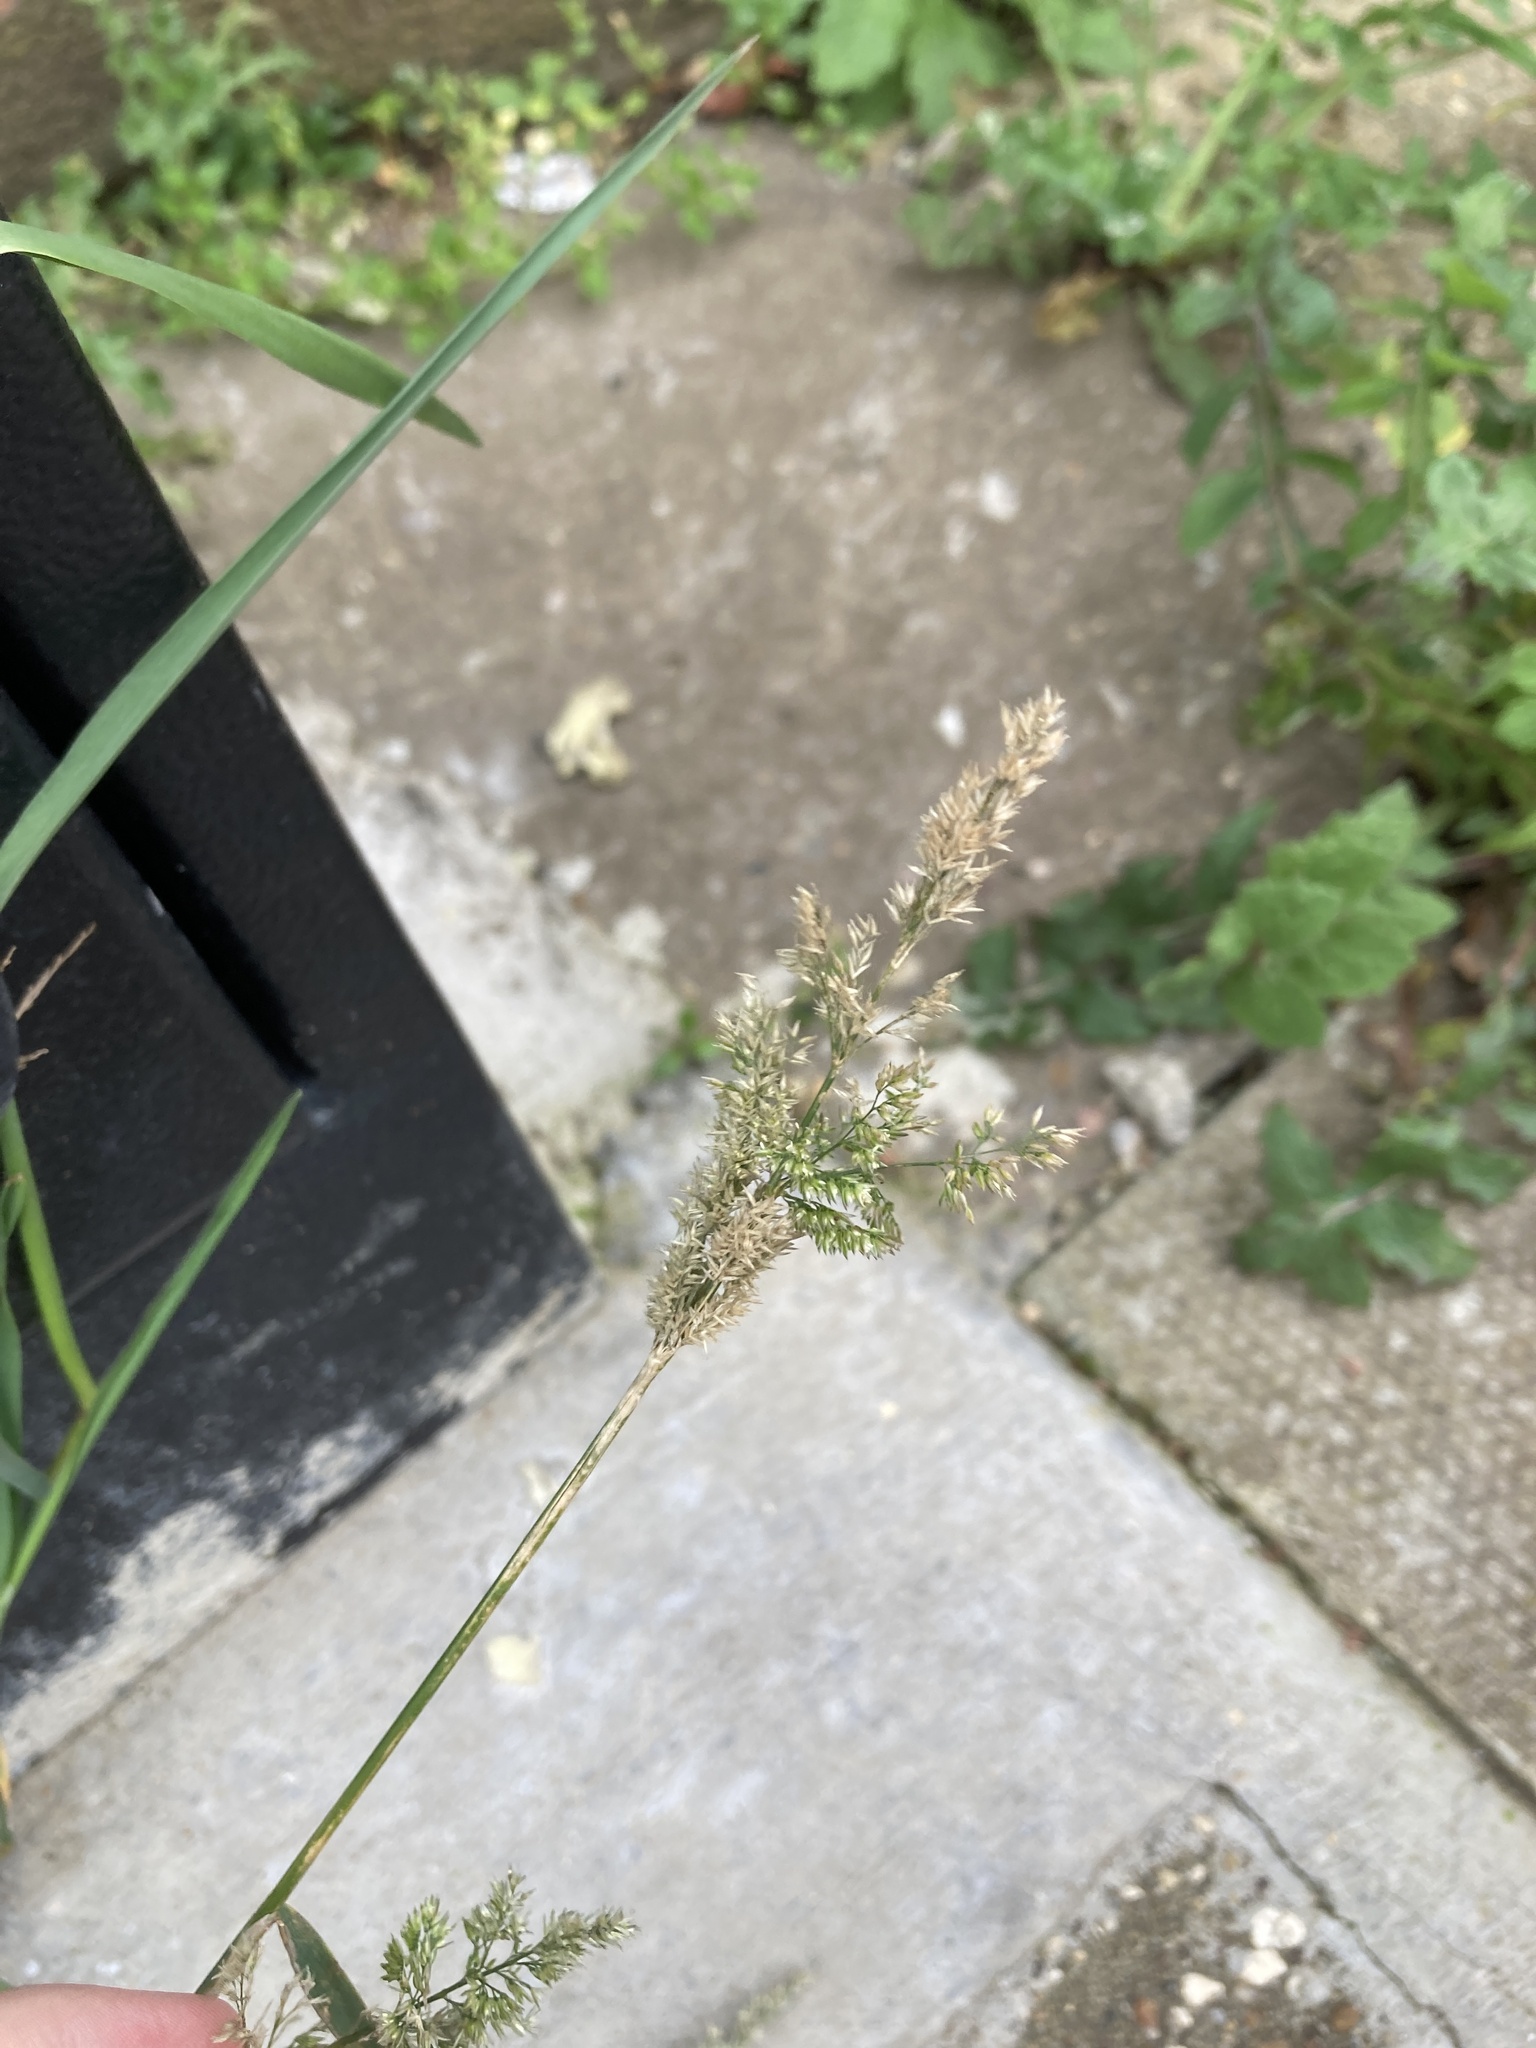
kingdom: Plantae
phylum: Tracheophyta
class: Liliopsida
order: Poales
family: Poaceae
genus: Polypogon
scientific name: Polypogon viridis
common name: Water bent
